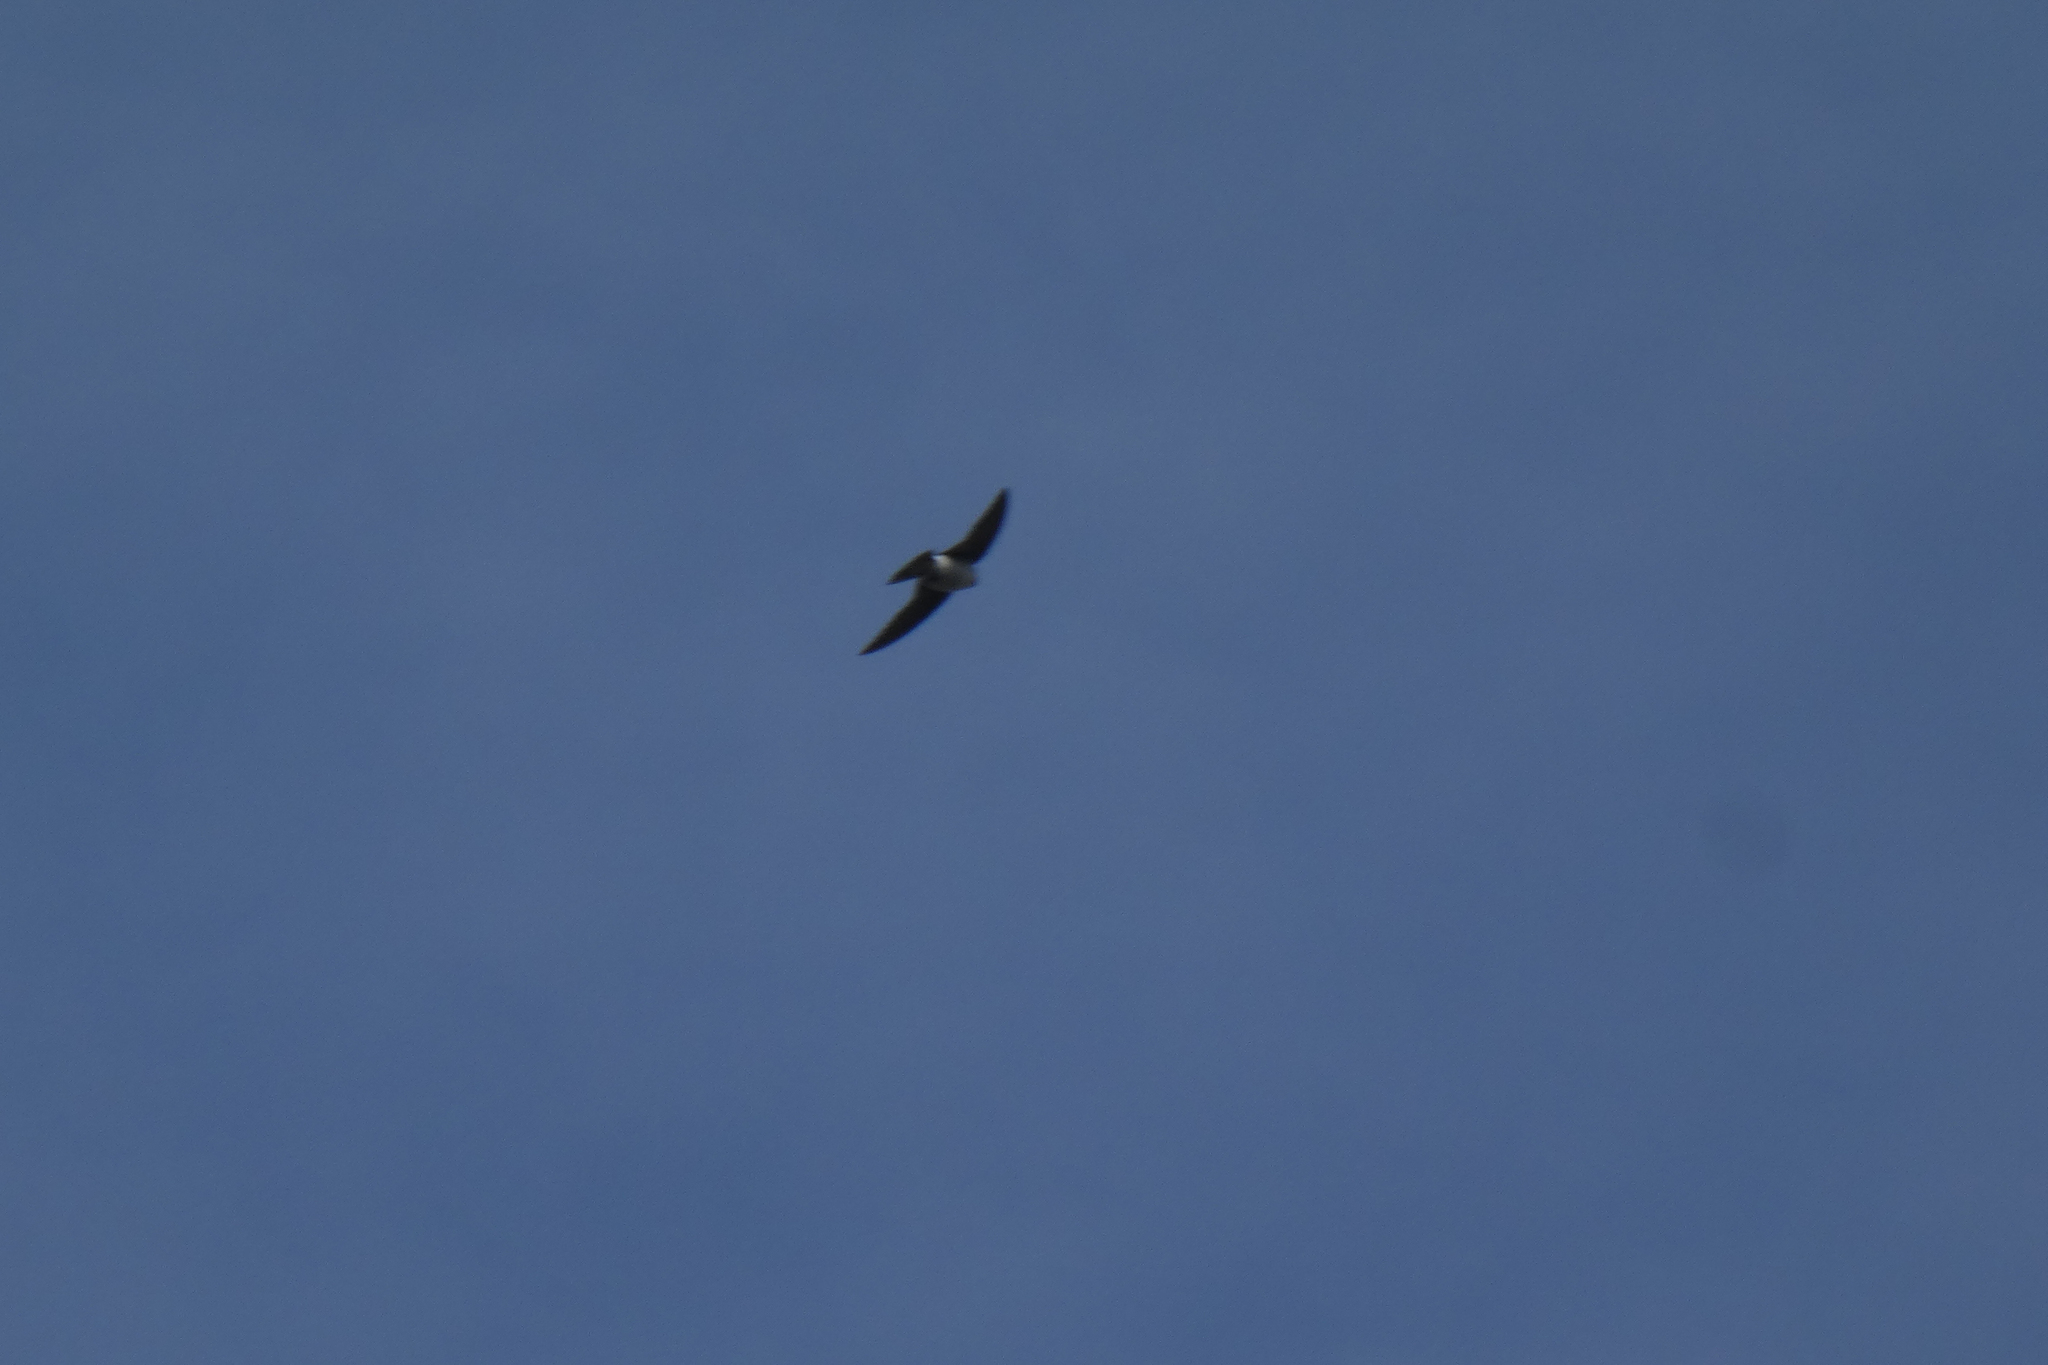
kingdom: Animalia
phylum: Chordata
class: Aves
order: Passeriformes
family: Hirundinidae
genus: Tachycineta
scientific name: Tachycineta thalassina
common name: Violet-green swallow
